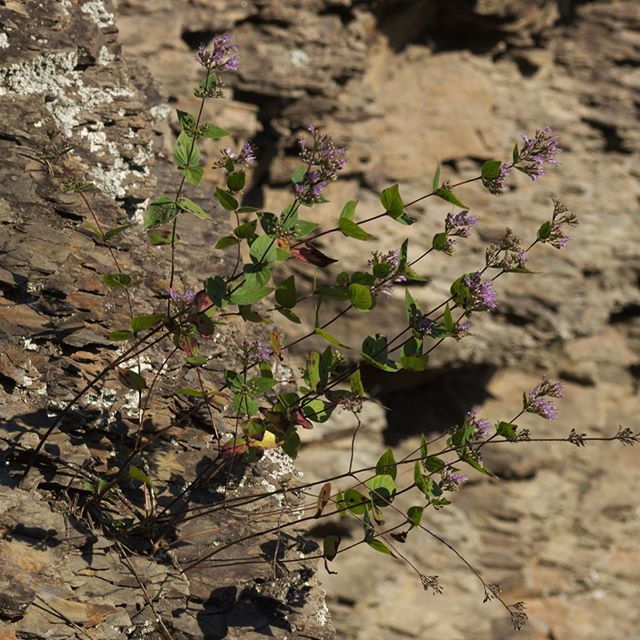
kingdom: Plantae
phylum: Tracheophyta
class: Magnoliopsida
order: Lamiales
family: Lamiaceae
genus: Cunila
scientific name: Cunila origanoides
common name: American dittany
